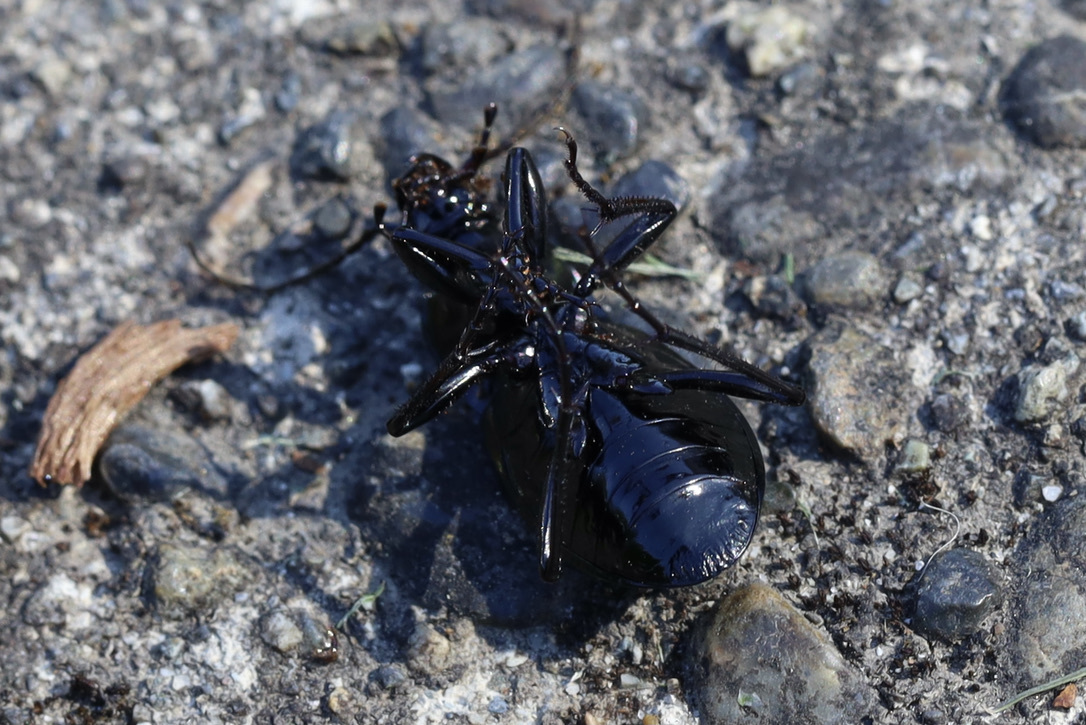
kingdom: Animalia
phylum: Arthropoda
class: Insecta
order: Coleoptera
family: Carabidae
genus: Carabus
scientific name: Carabus nemoralis
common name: European ground beetle
